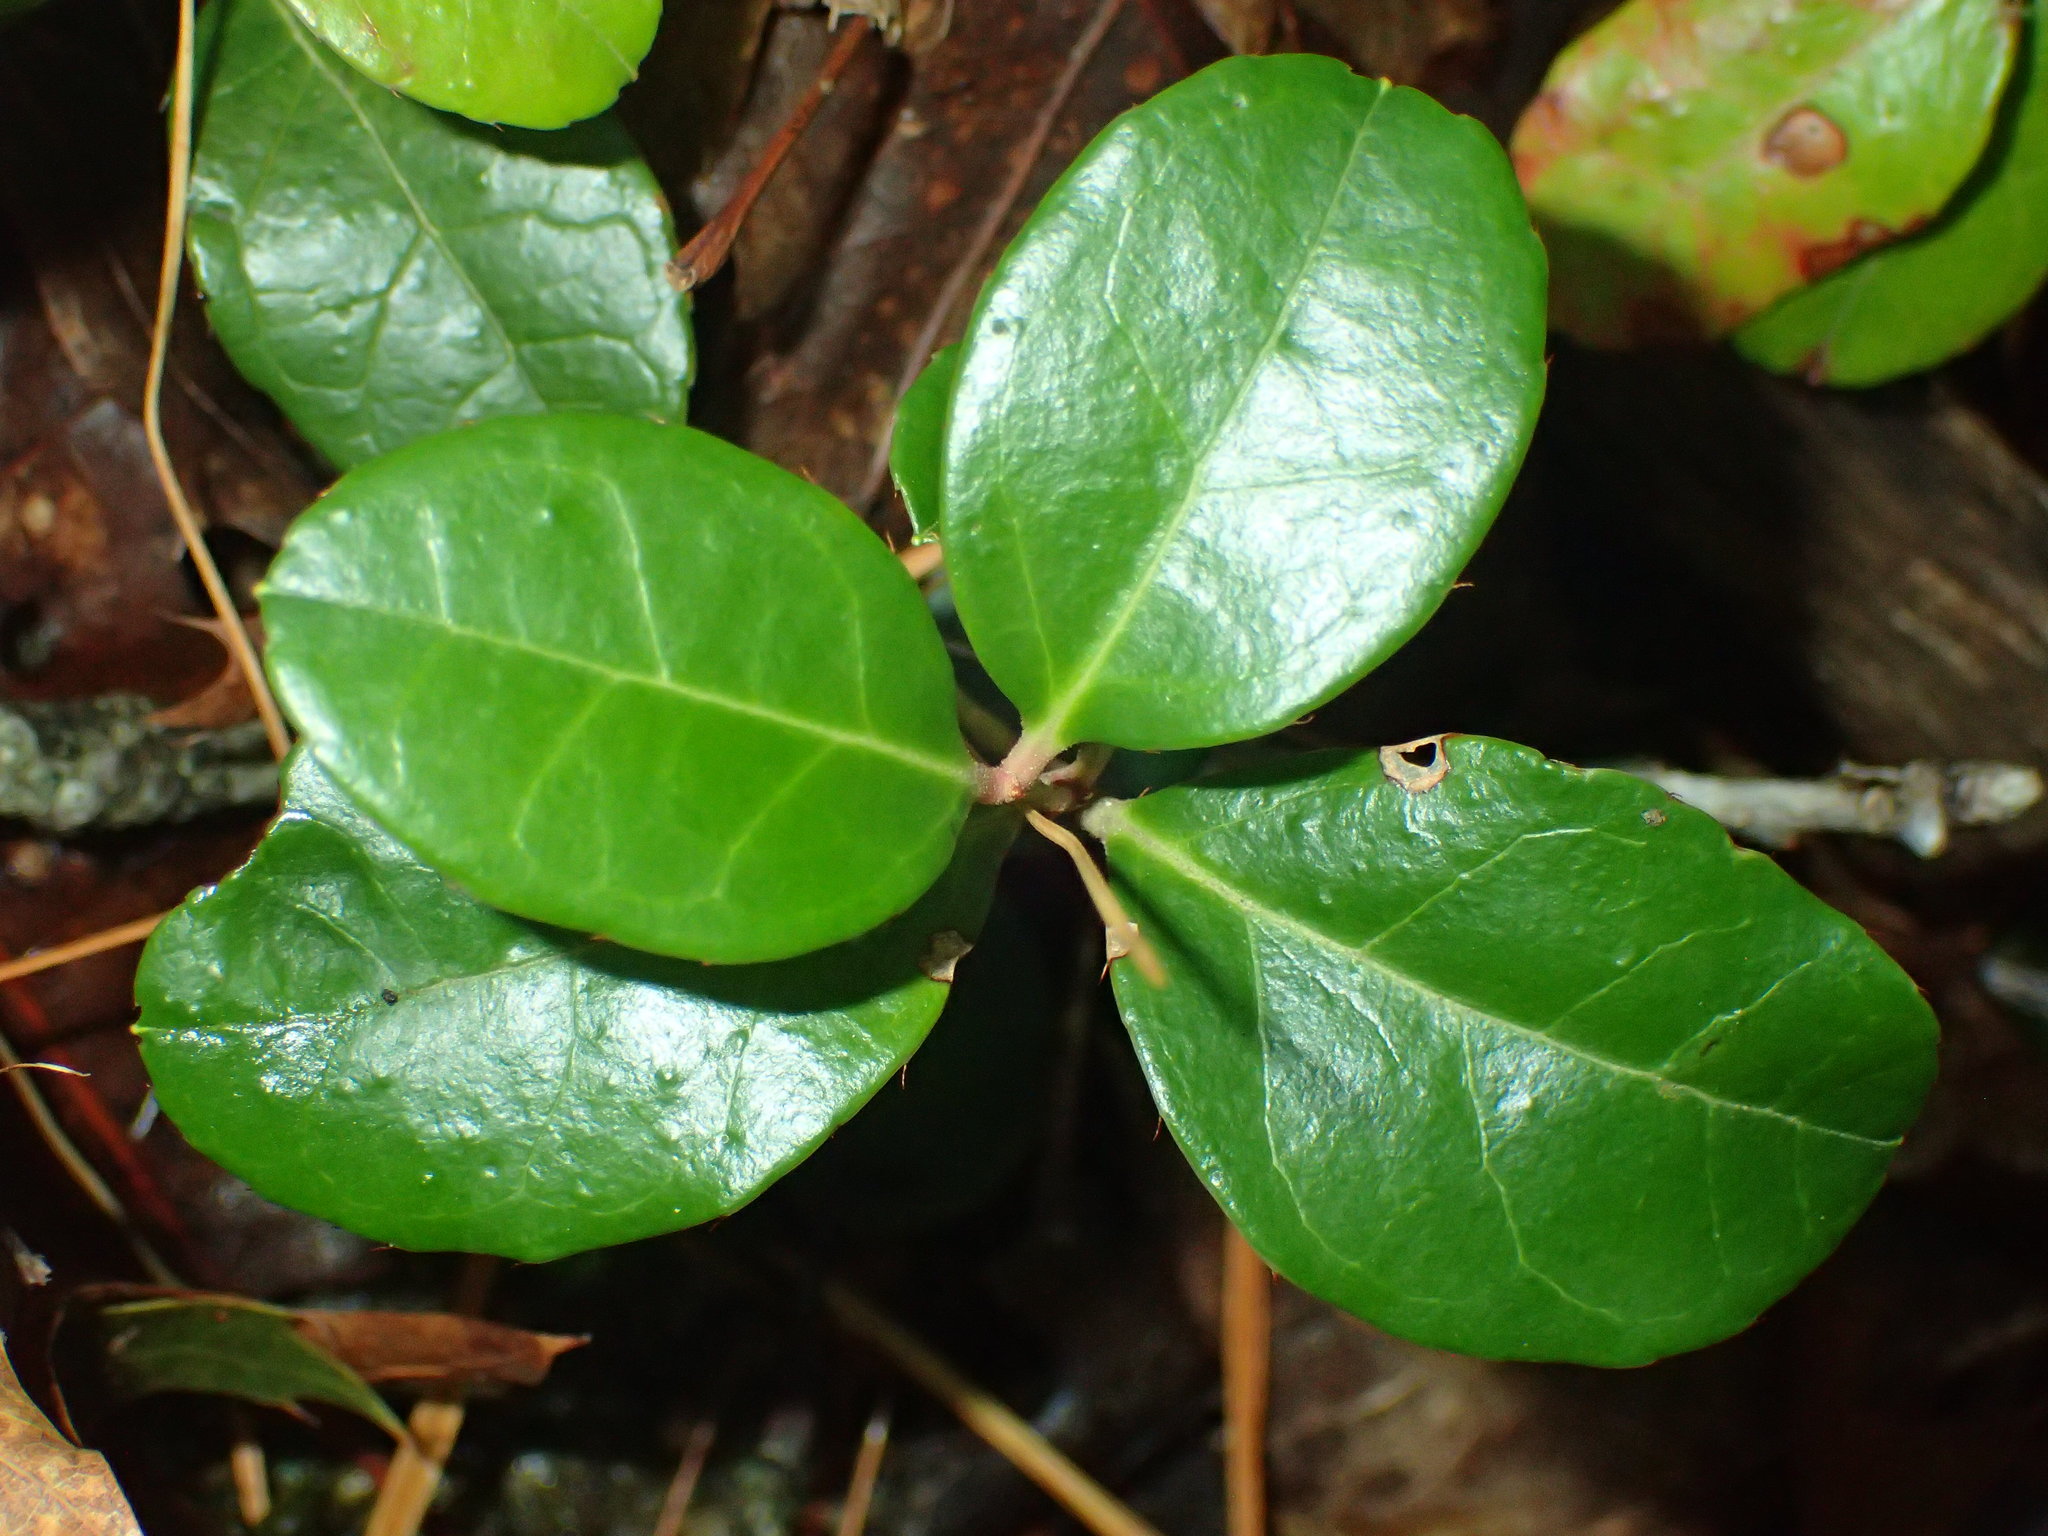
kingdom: Plantae
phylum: Tracheophyta
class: Magnoliopsida
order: Ericales
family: Ericaceae
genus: Gaultheria
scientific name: Gaultheria procumbens
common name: Checkerberry
